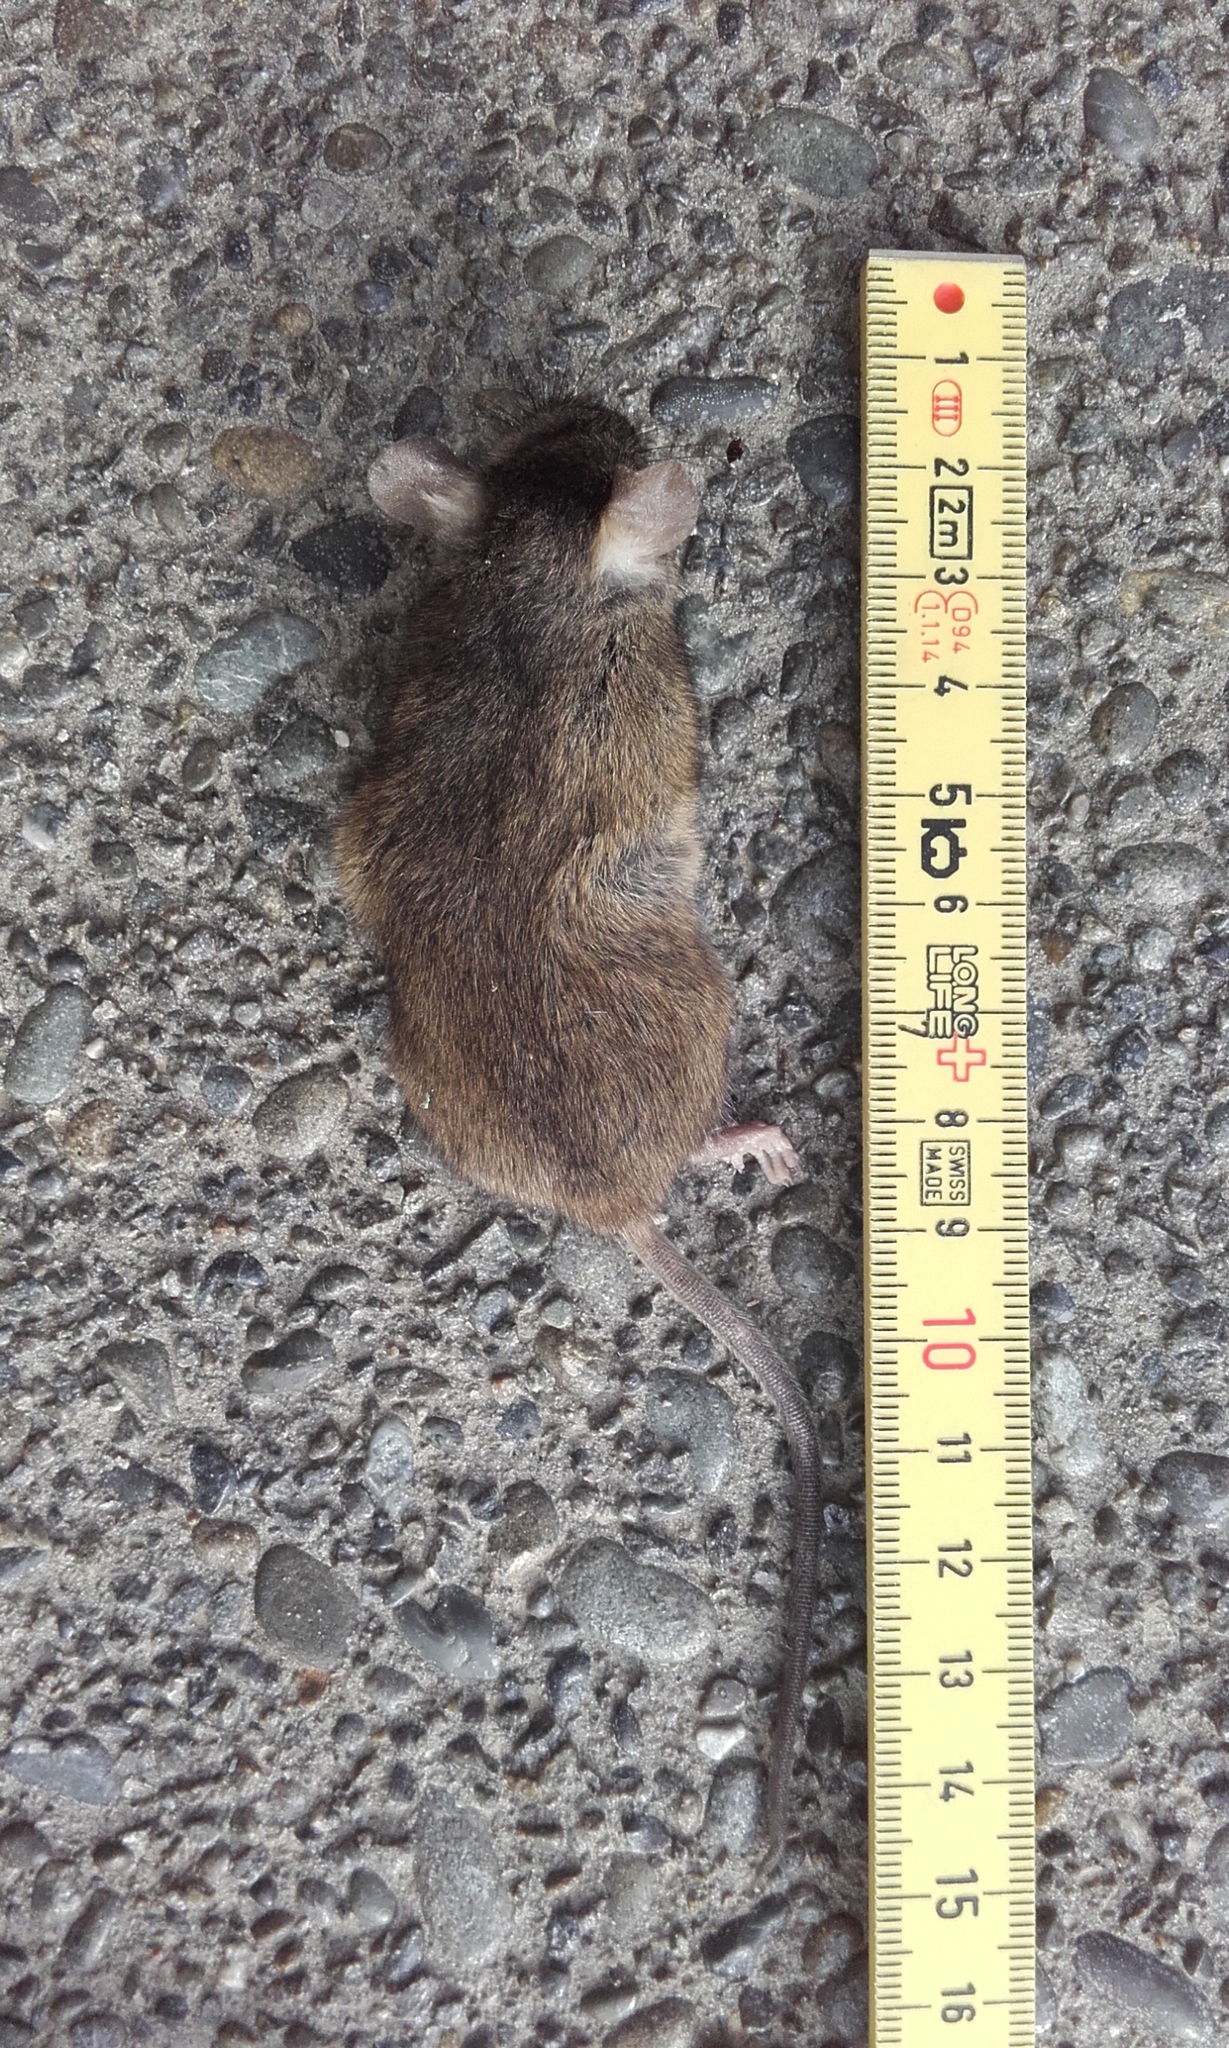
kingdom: Animalia
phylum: Chordata
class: Mammalia
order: Rodentia
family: Muridae
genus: Mus
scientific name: Mus musculus
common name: House mouse
